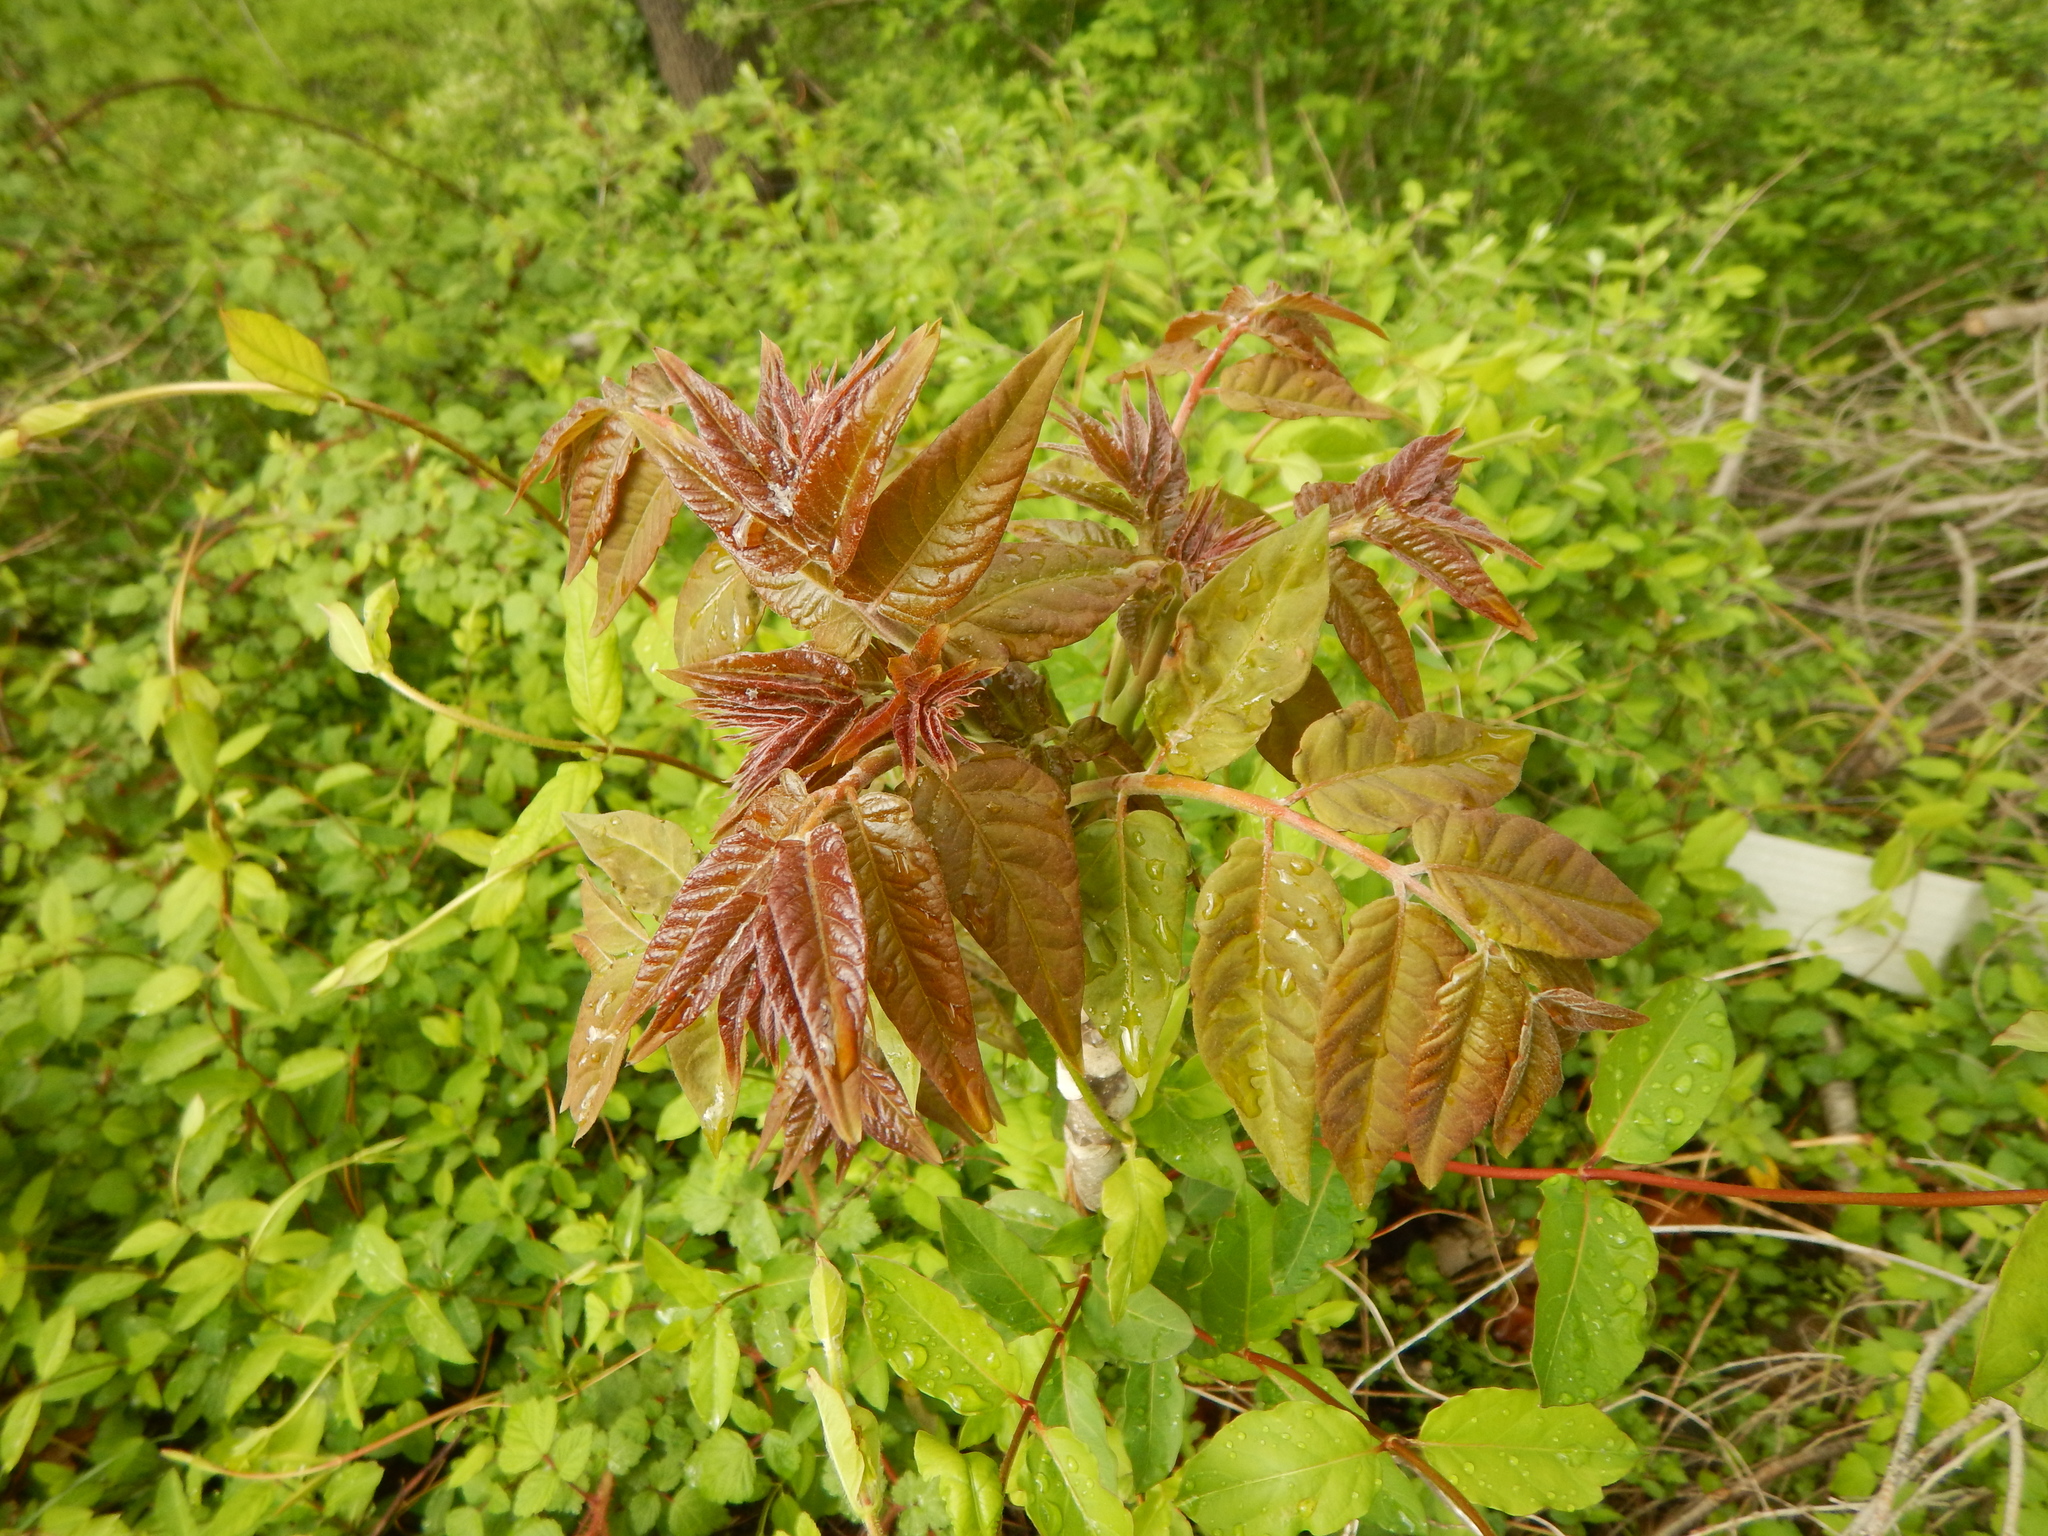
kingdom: Plantae
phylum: Tracheophyta
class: Magnoliopsida
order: Sapindales
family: Simaroubaceae
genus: Ailanthus
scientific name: Ailanthus altissima
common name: Tree-of-heaven
